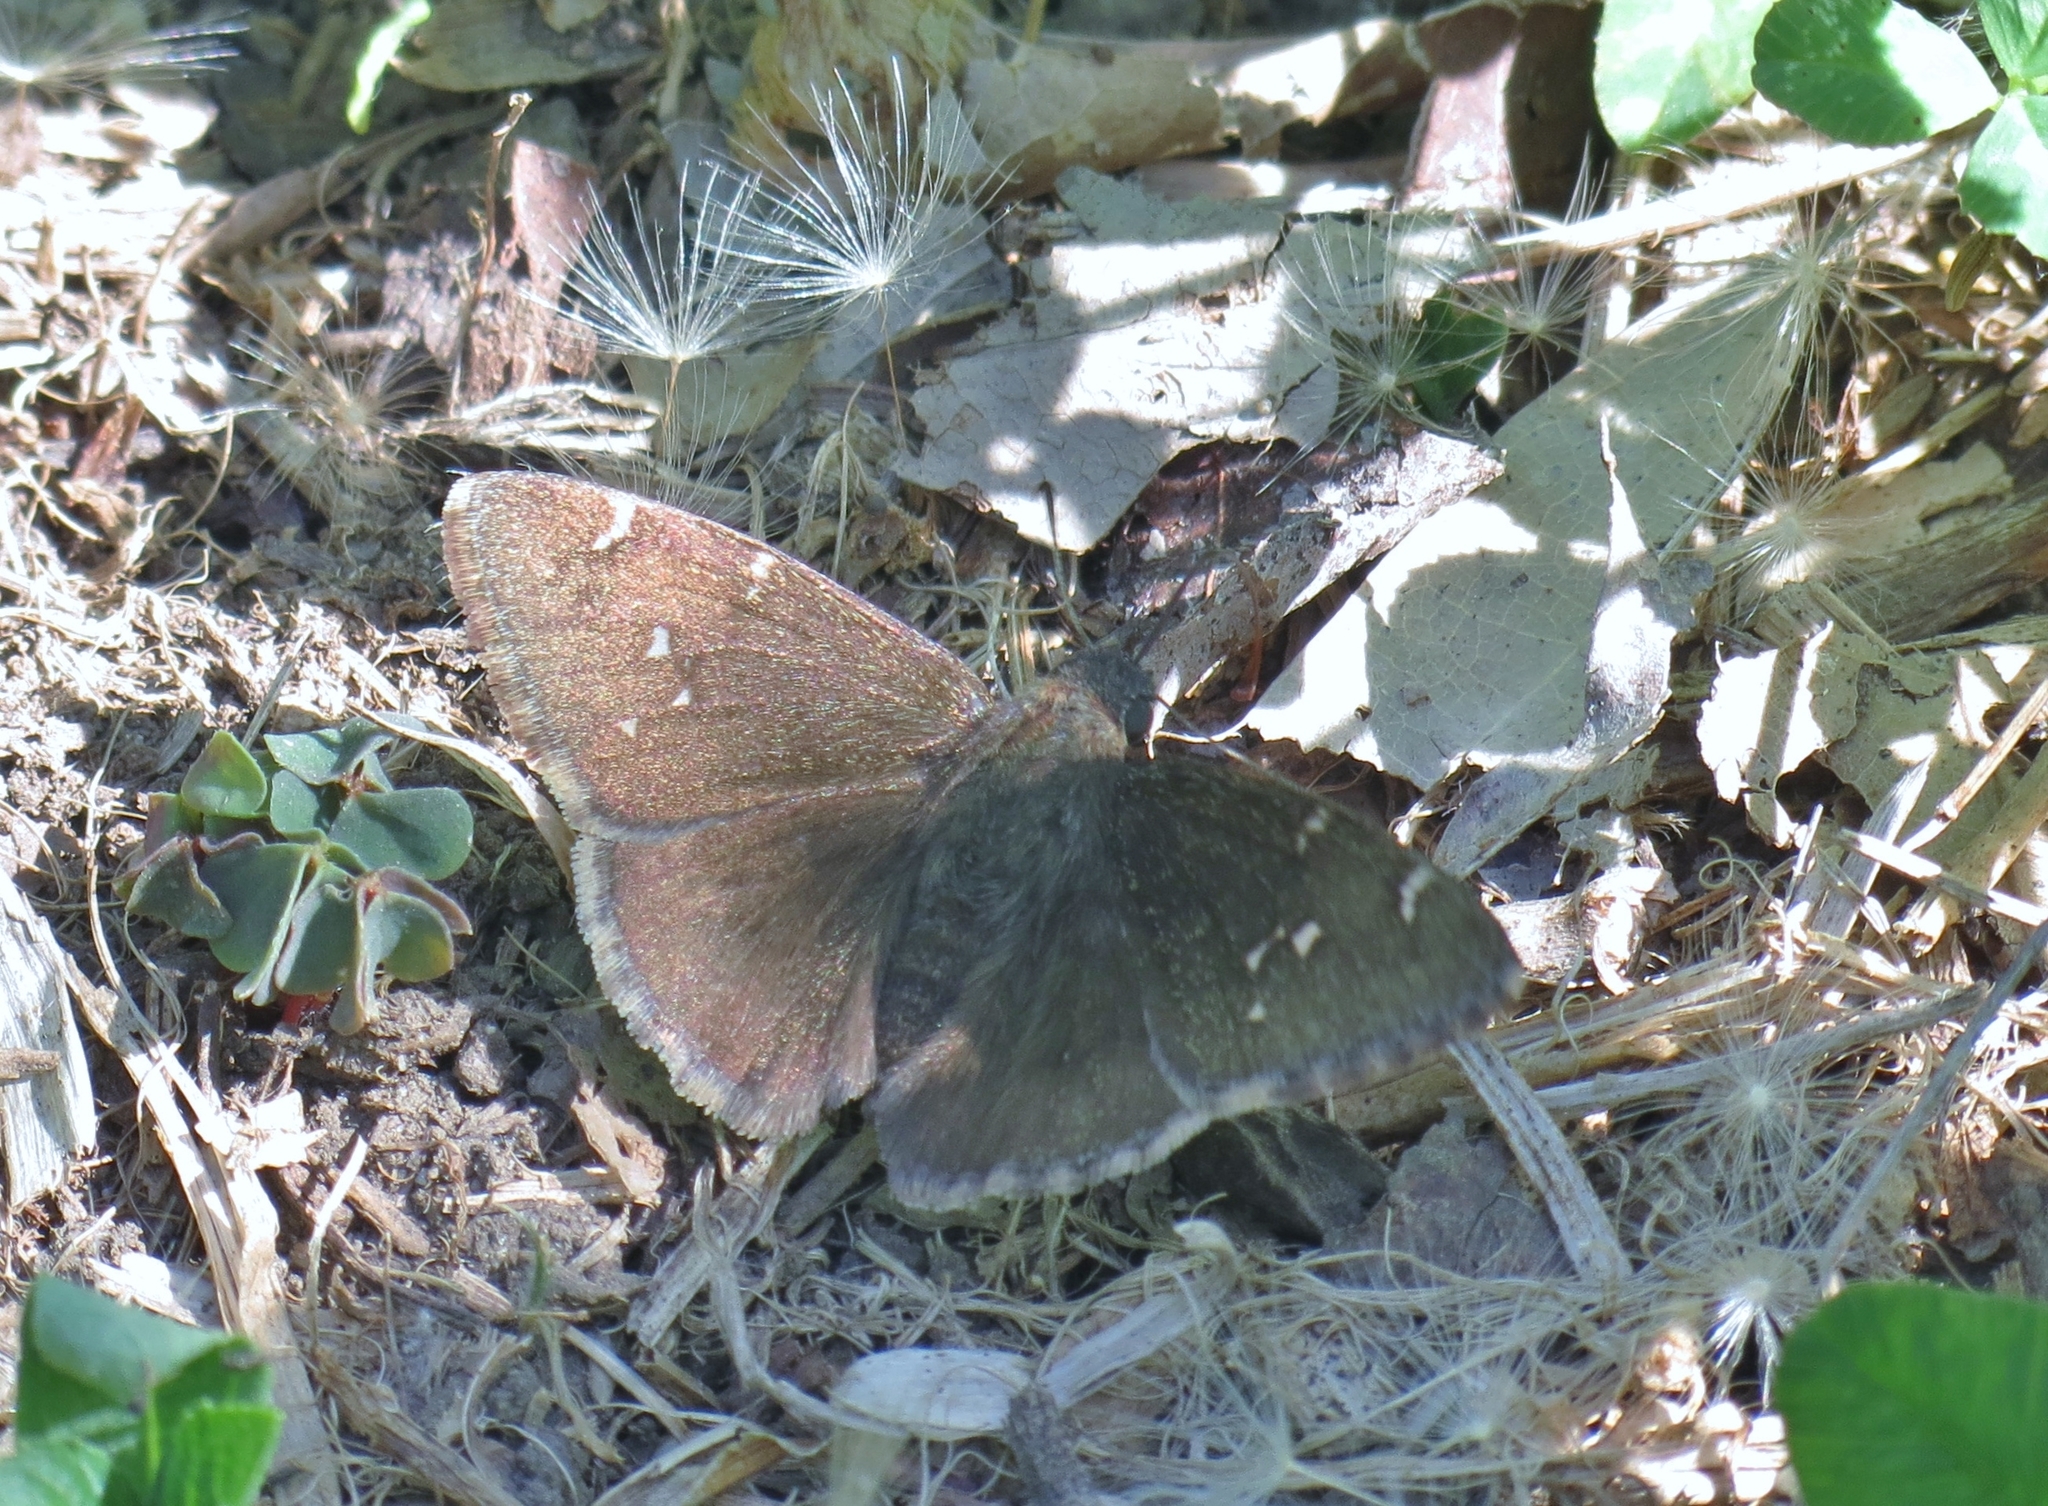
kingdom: Animalia
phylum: Arthropoda
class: Insecta
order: Lepidoptera
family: Hesperiidae
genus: Thorybes
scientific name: Thorybes pylades
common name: Northern cloudywing
